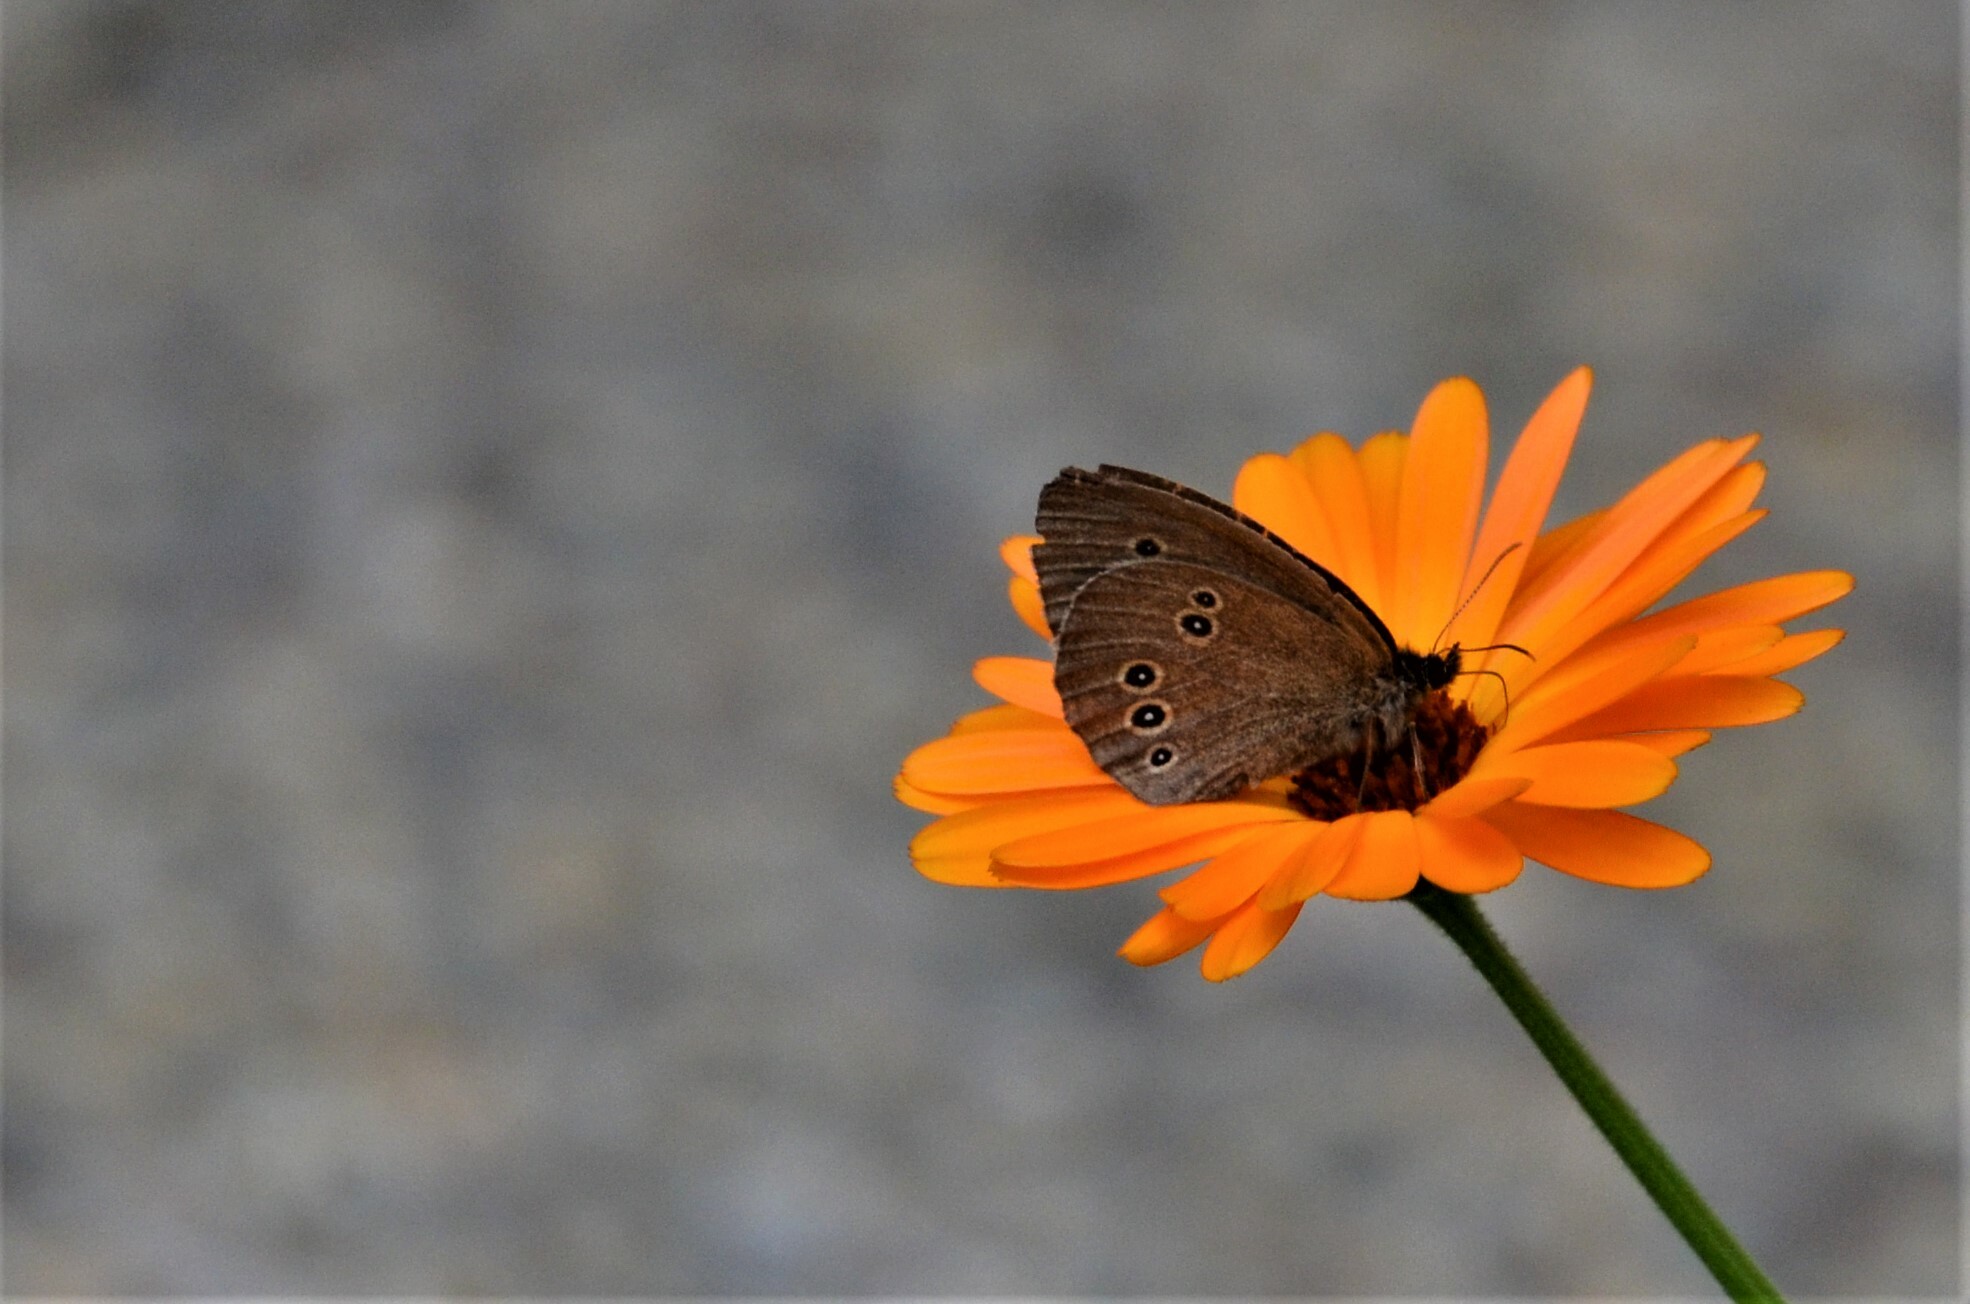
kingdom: Animalia
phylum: Arthropoda
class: Insecta
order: Lepidoptera
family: Nymphalidae
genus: Aphantopus
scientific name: Aphantopus hyperantus
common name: Ringlet
